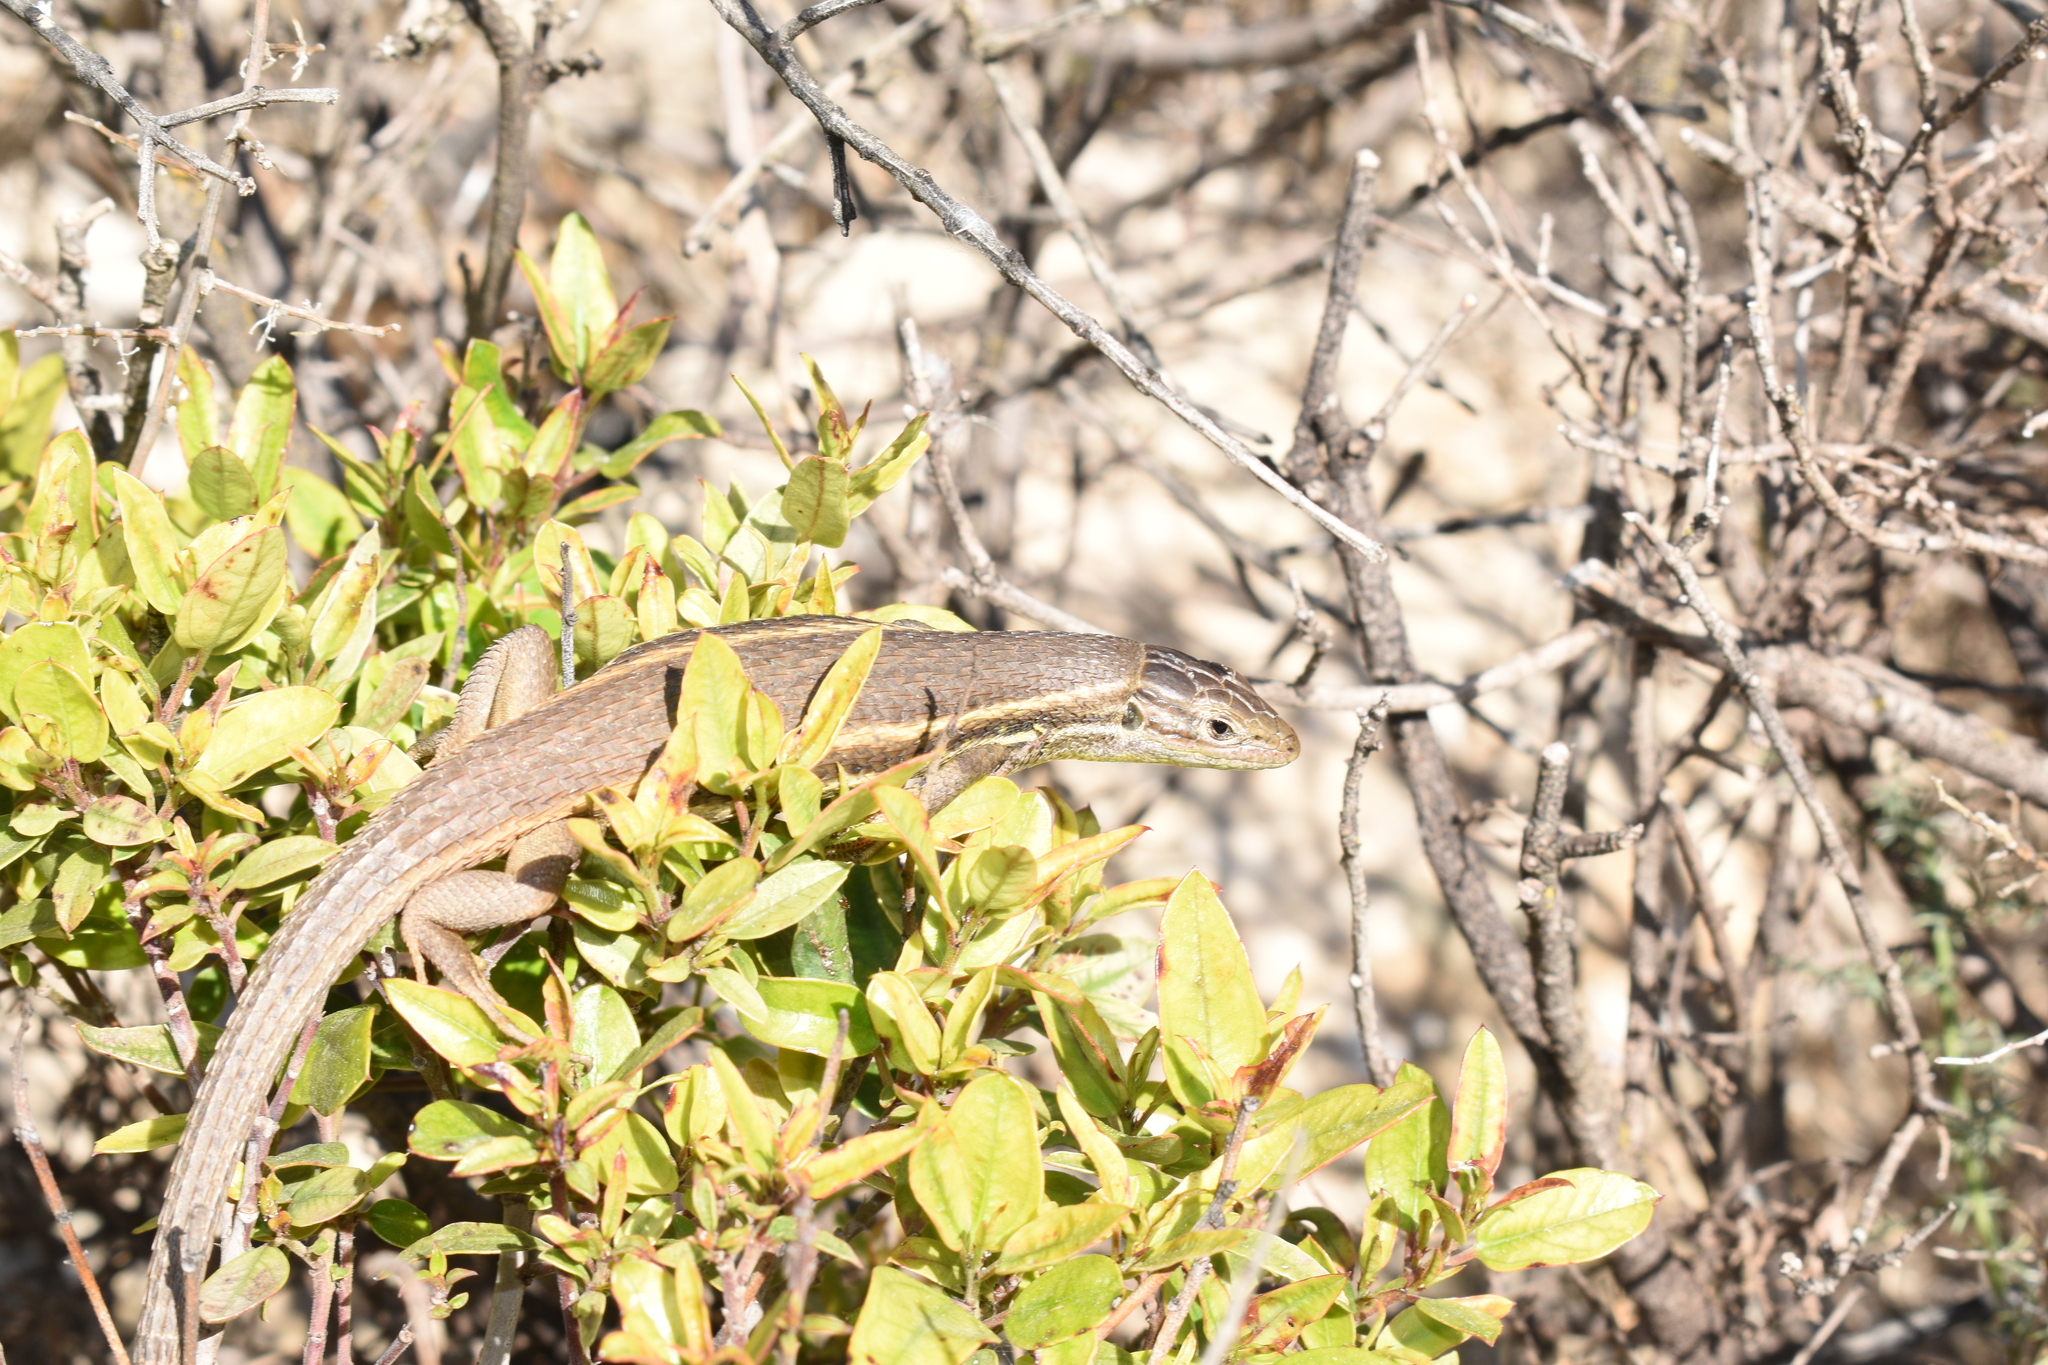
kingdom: Animalia
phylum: Chordata
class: Squamata
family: Lacertidae
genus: Psammodromus
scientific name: Psammodromus algirus
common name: Algerian psammodromus
